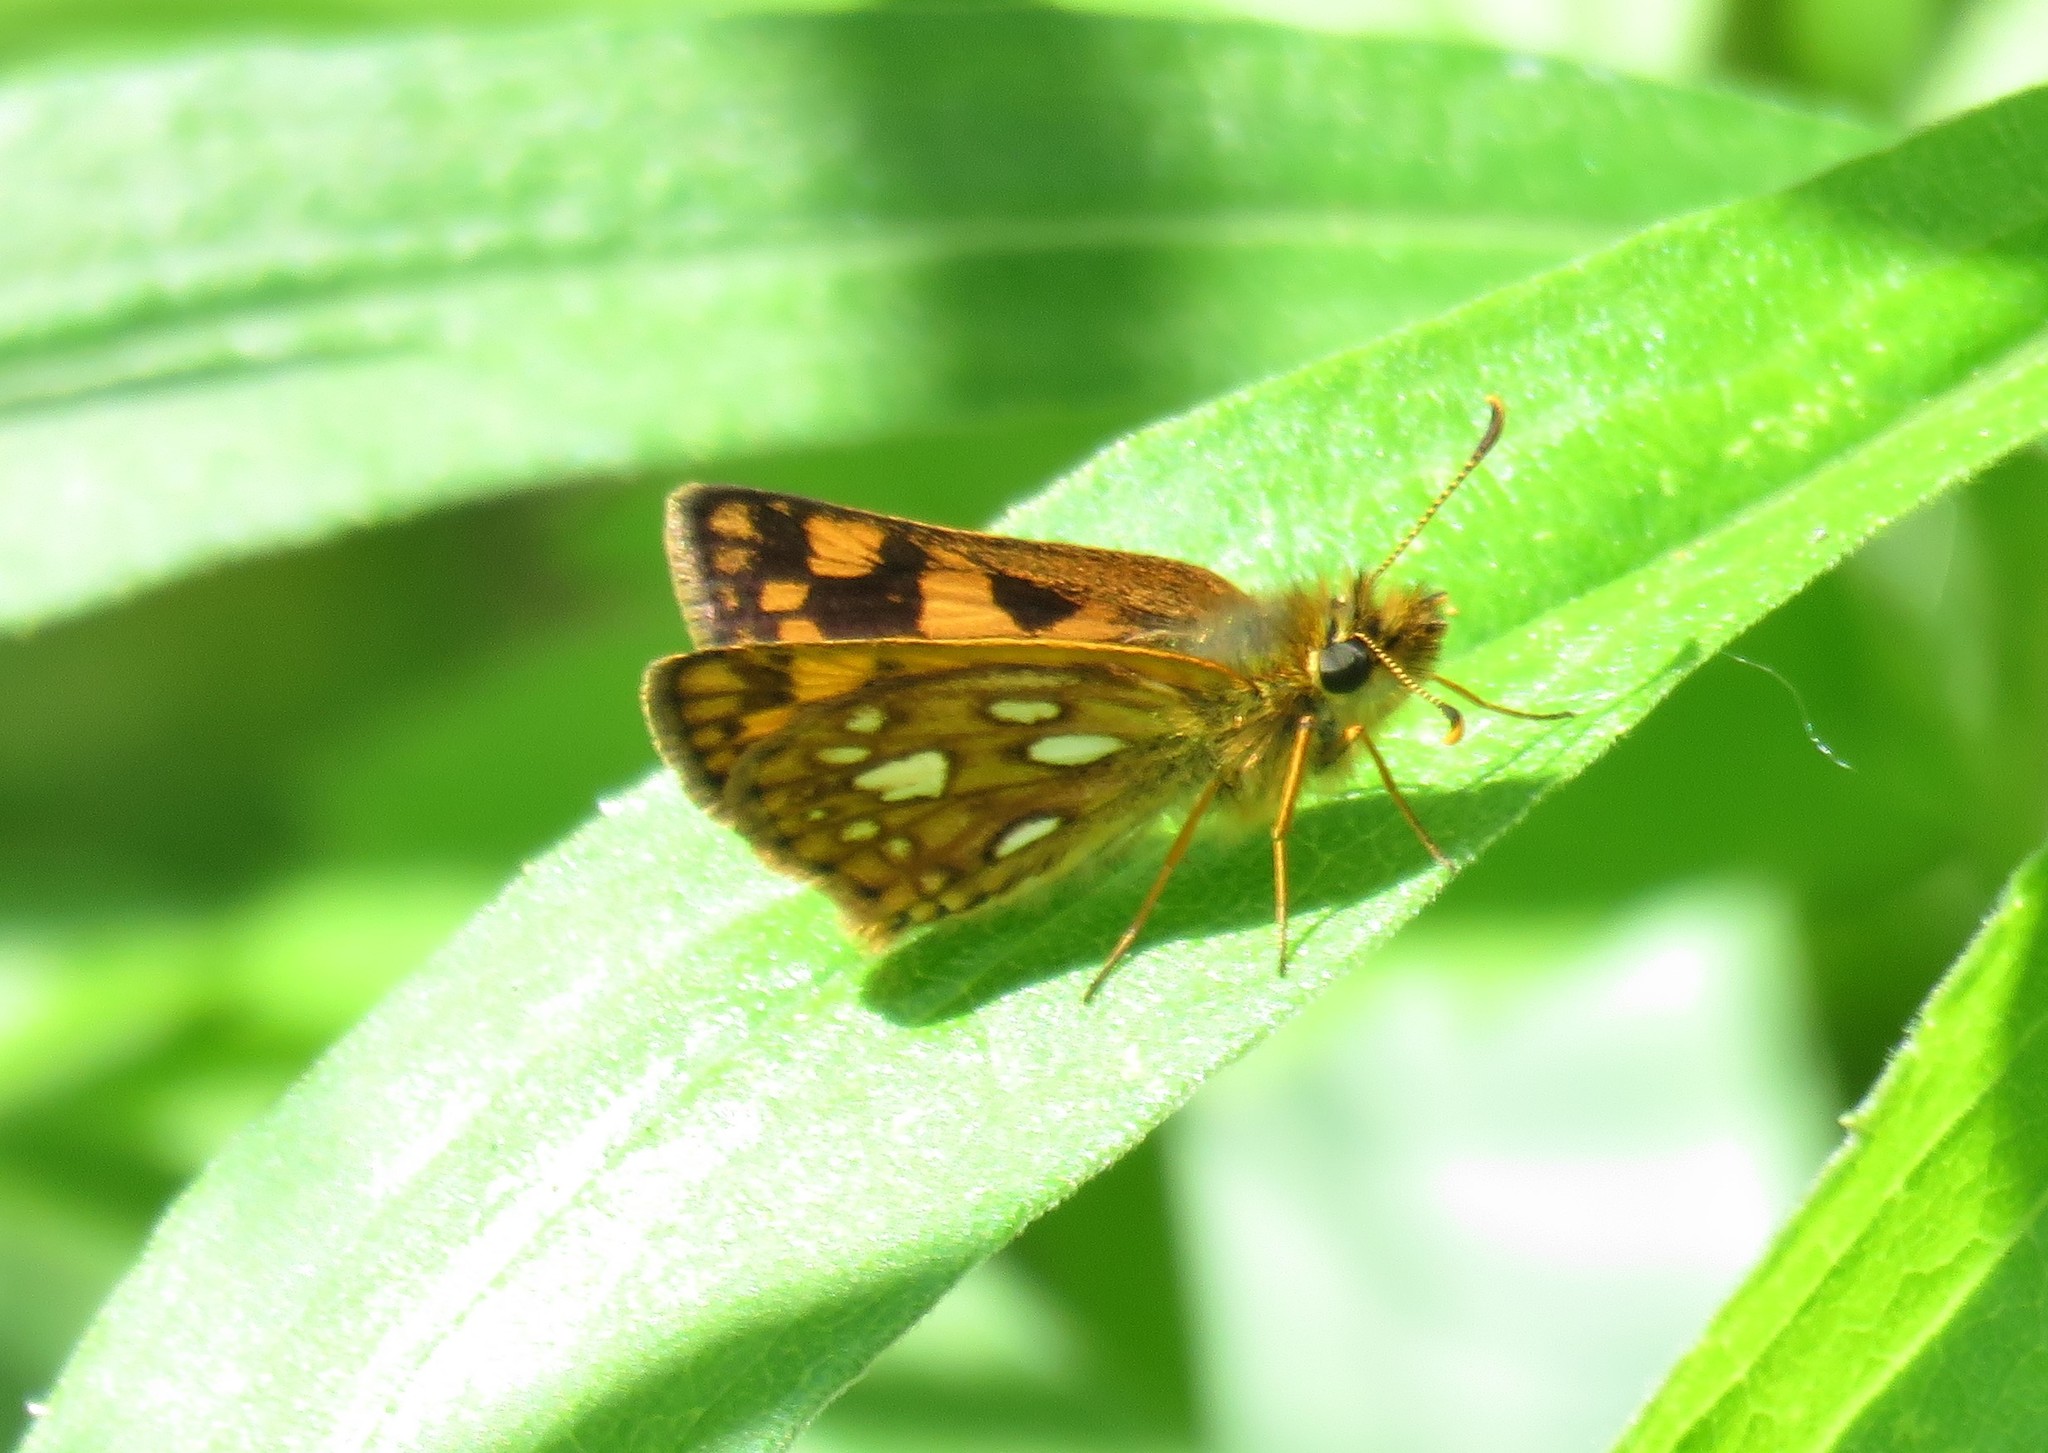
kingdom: Animalia
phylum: Arthropoda
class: Insecta
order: Lepidoptera
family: Hesperiidae
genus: Carterocephalus
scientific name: Carterocephalus mandan
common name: Arctic skipperling
